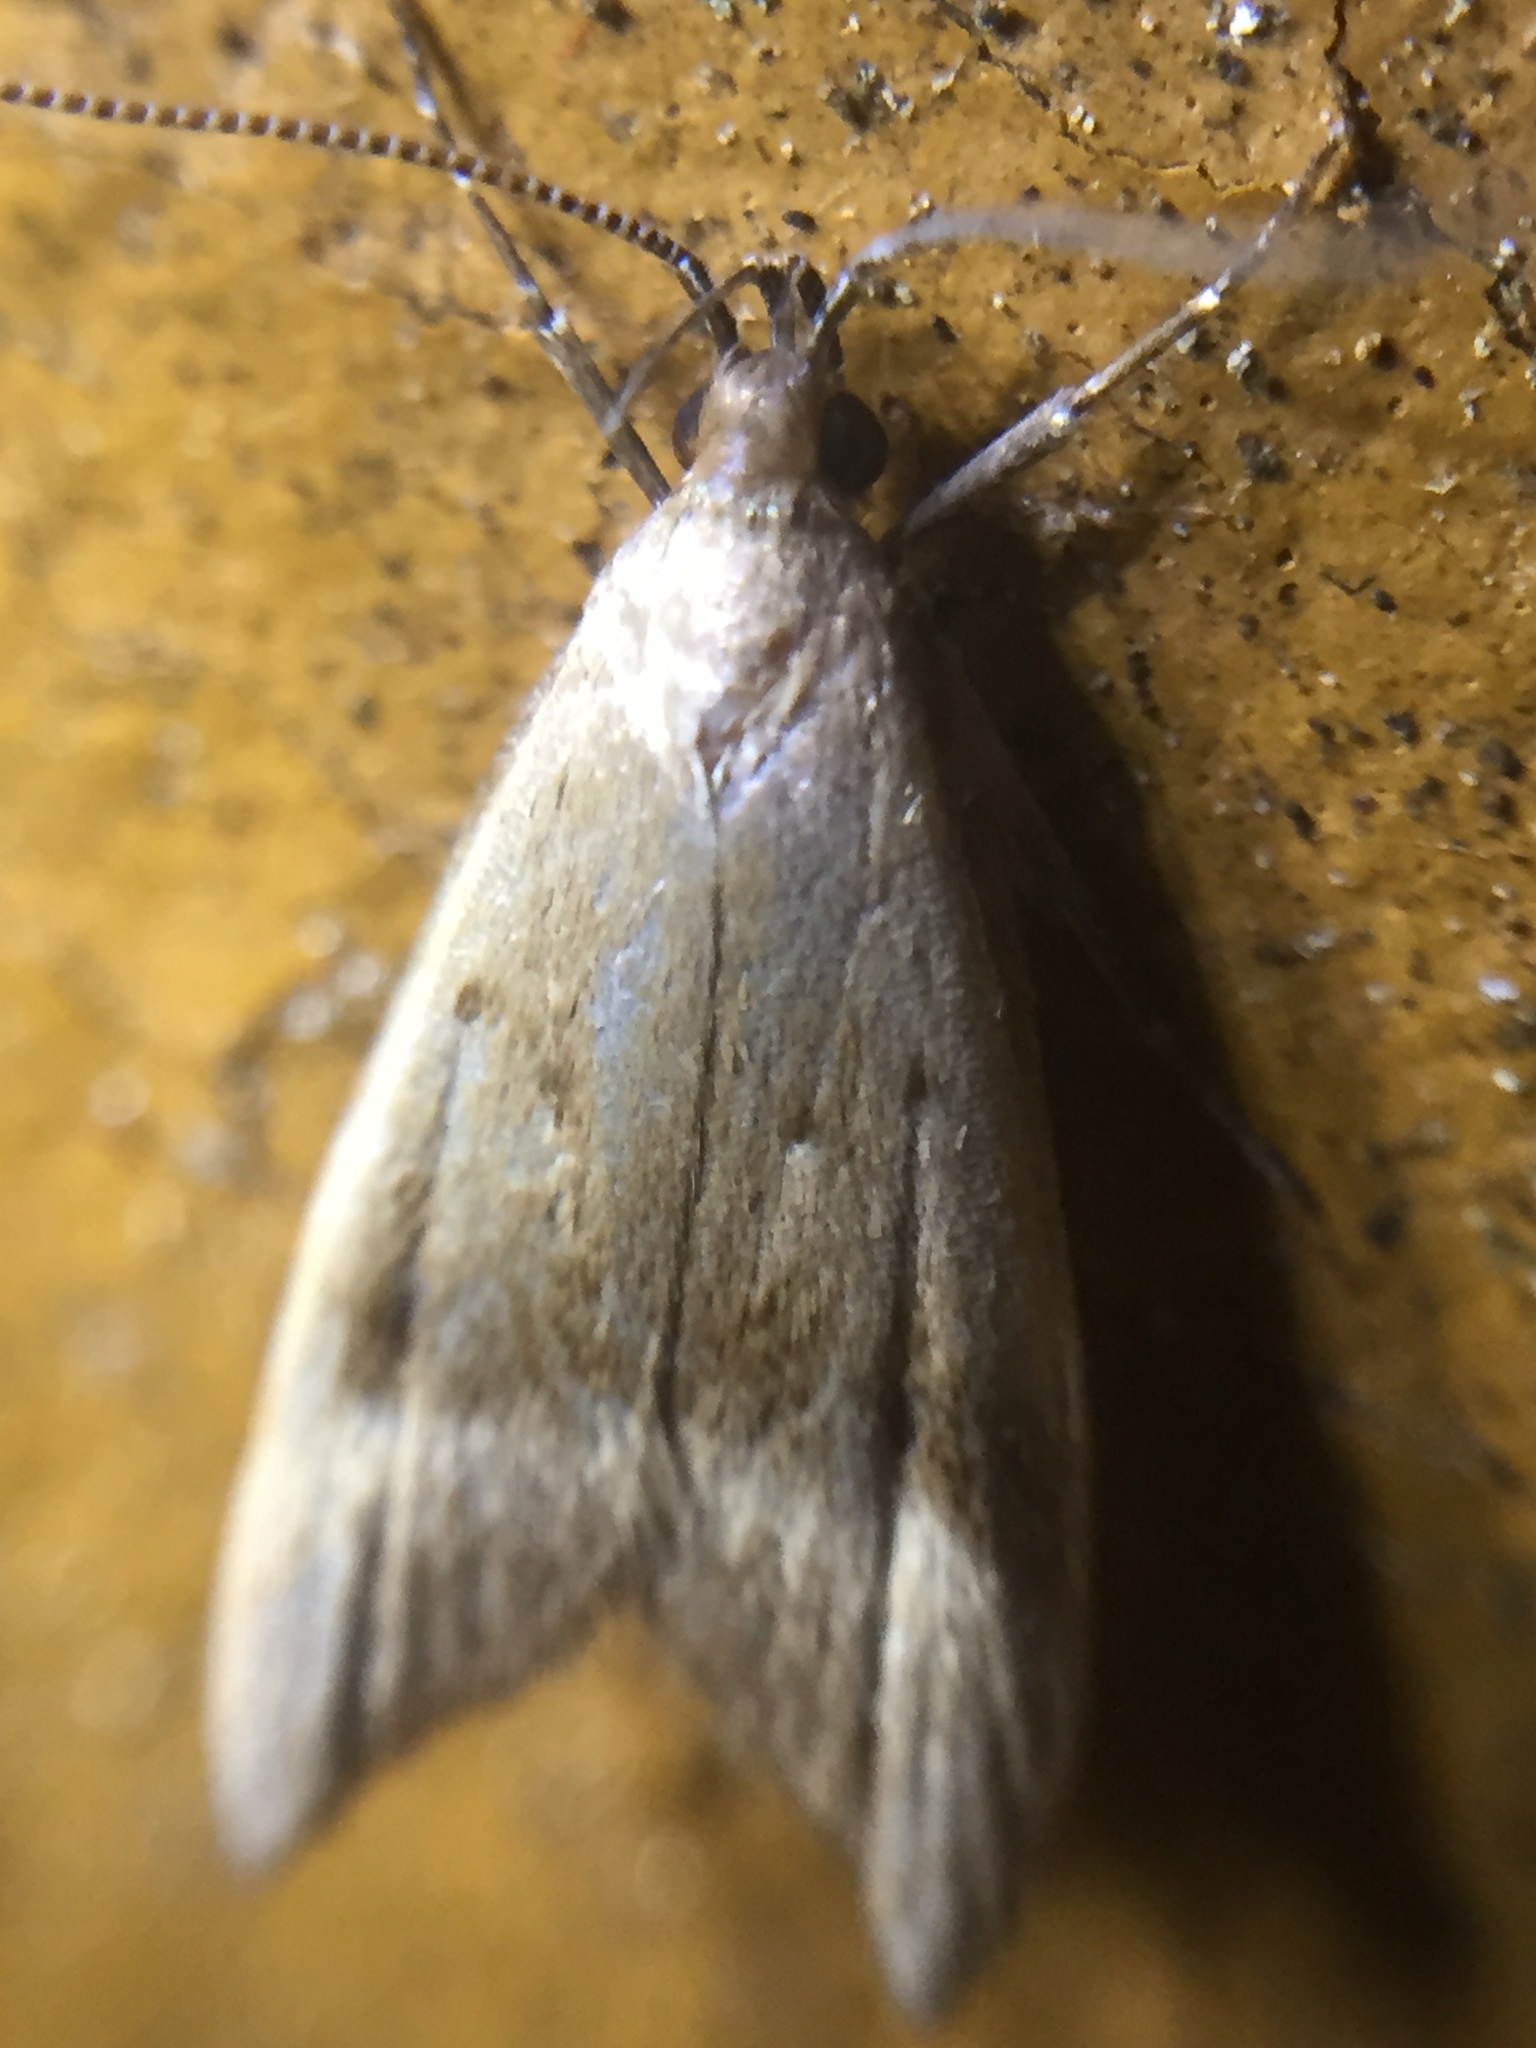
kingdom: Animalia
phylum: Arthropoda
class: Insecta
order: Lepidoptera
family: Oecophoridae
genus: Gymnobathra
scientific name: Gymnobathra hyetodes
